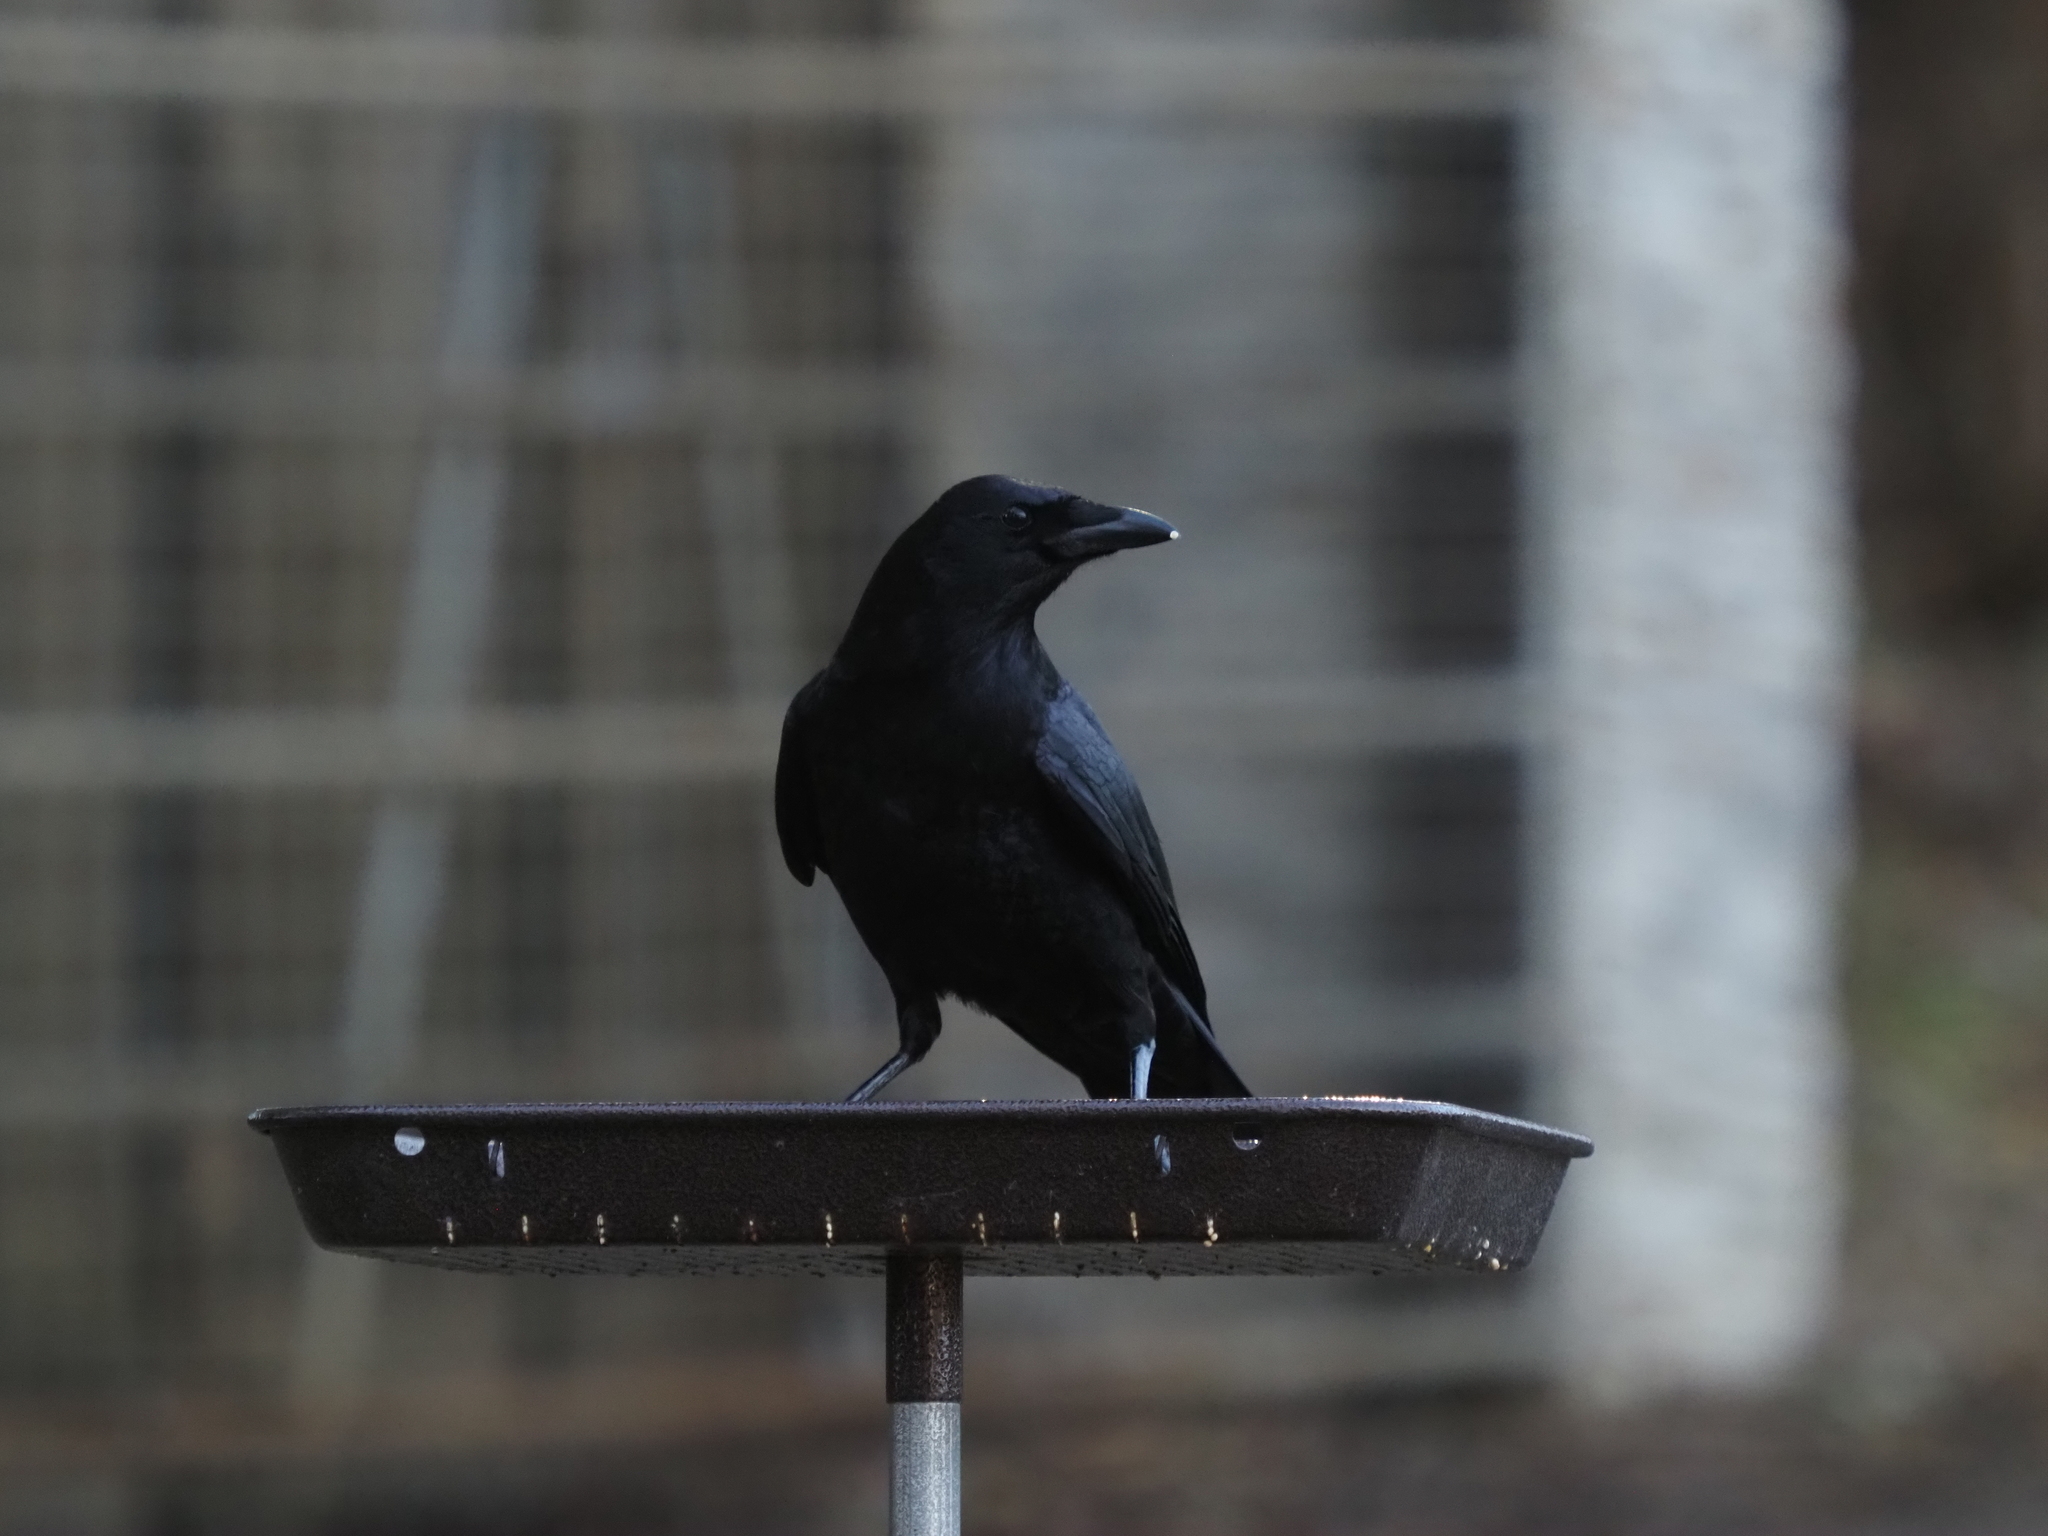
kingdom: Animalia
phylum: Chordata
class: Aves
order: Passeriformes
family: Corvidae
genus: Corvus
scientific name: Corvus brachyrhynchos
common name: American crow
